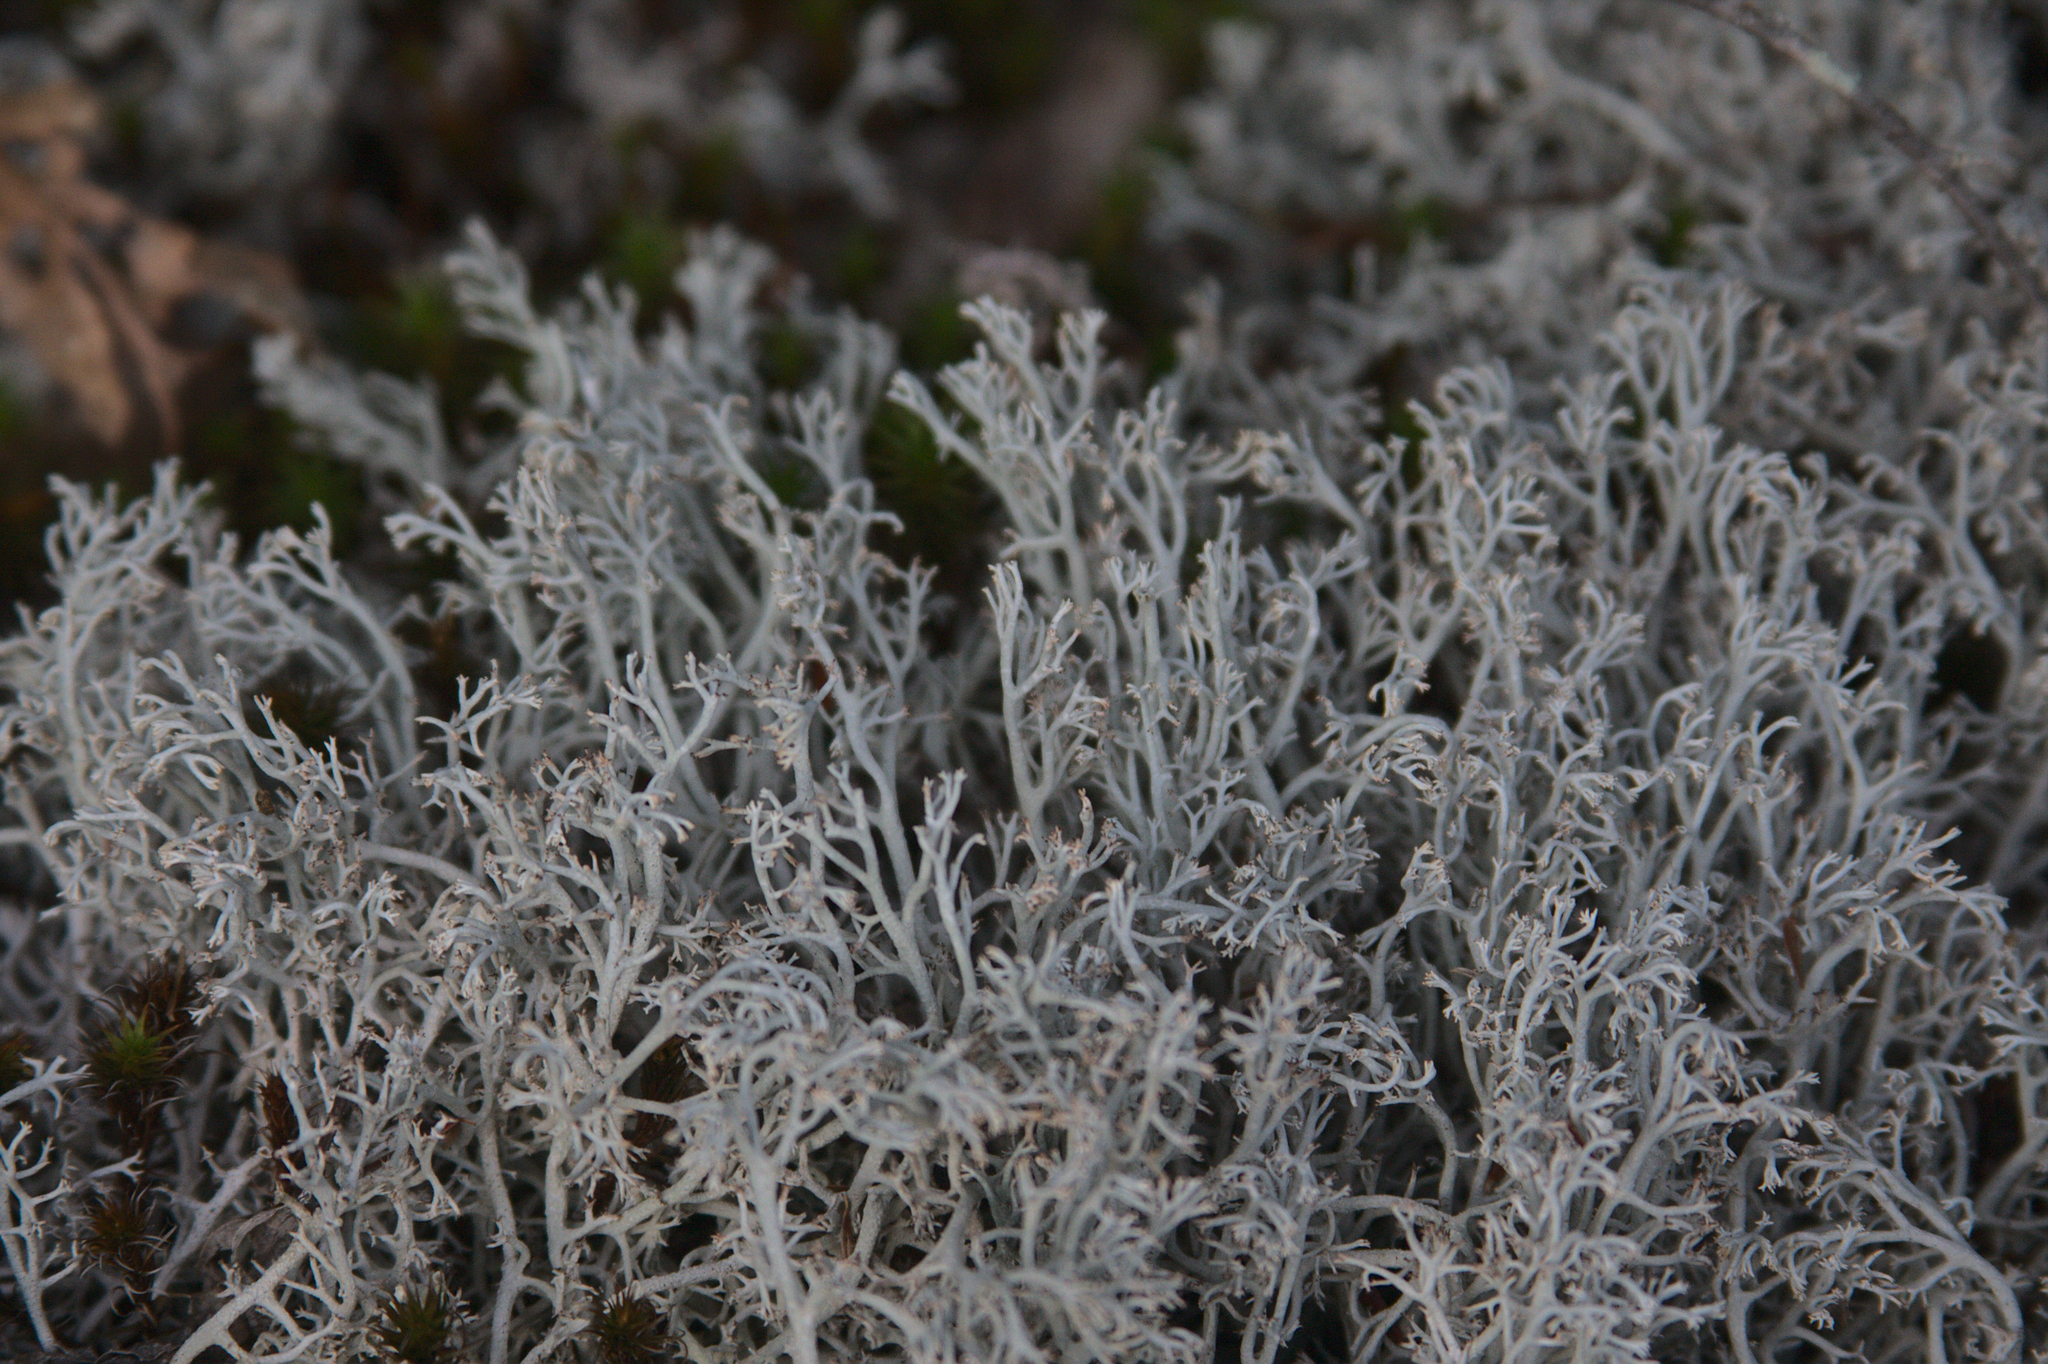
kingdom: Fungi
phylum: Ascomycota
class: Lecanoromycetes
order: Lecanorales
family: Cladoniaceae
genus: Cladonia
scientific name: Cladonia rangiferina
